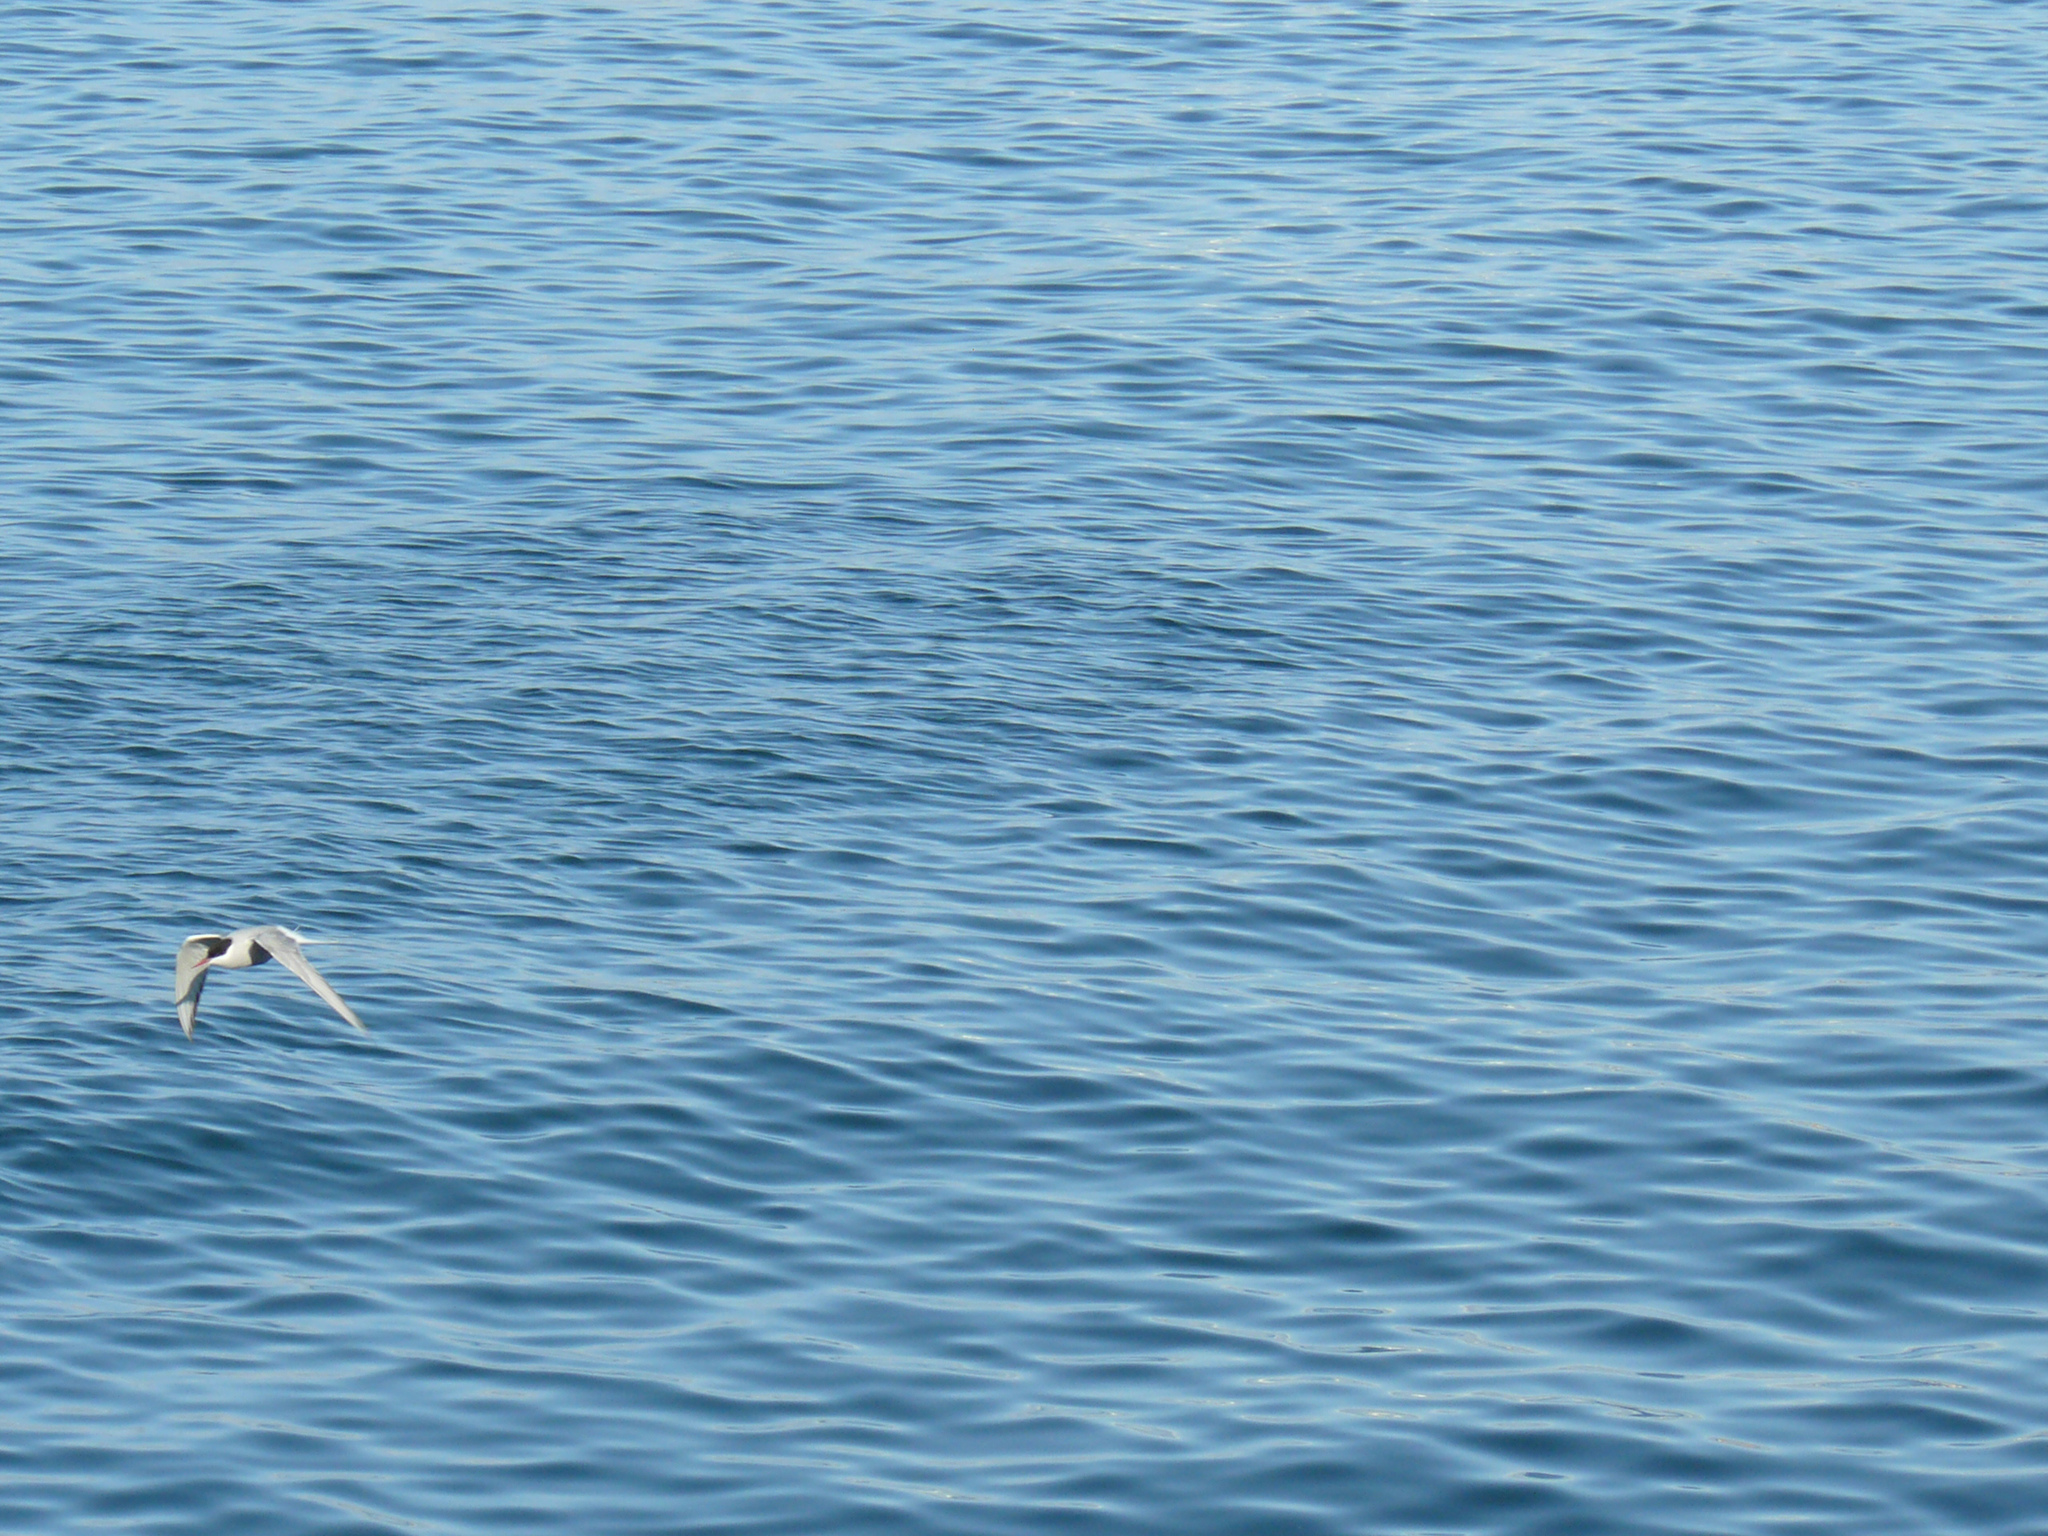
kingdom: Animalia
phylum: Chordata
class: Aves
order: Charadriiformes
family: Laridae
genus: Sterna
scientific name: Sterna paradisaea
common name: Arctic tern
